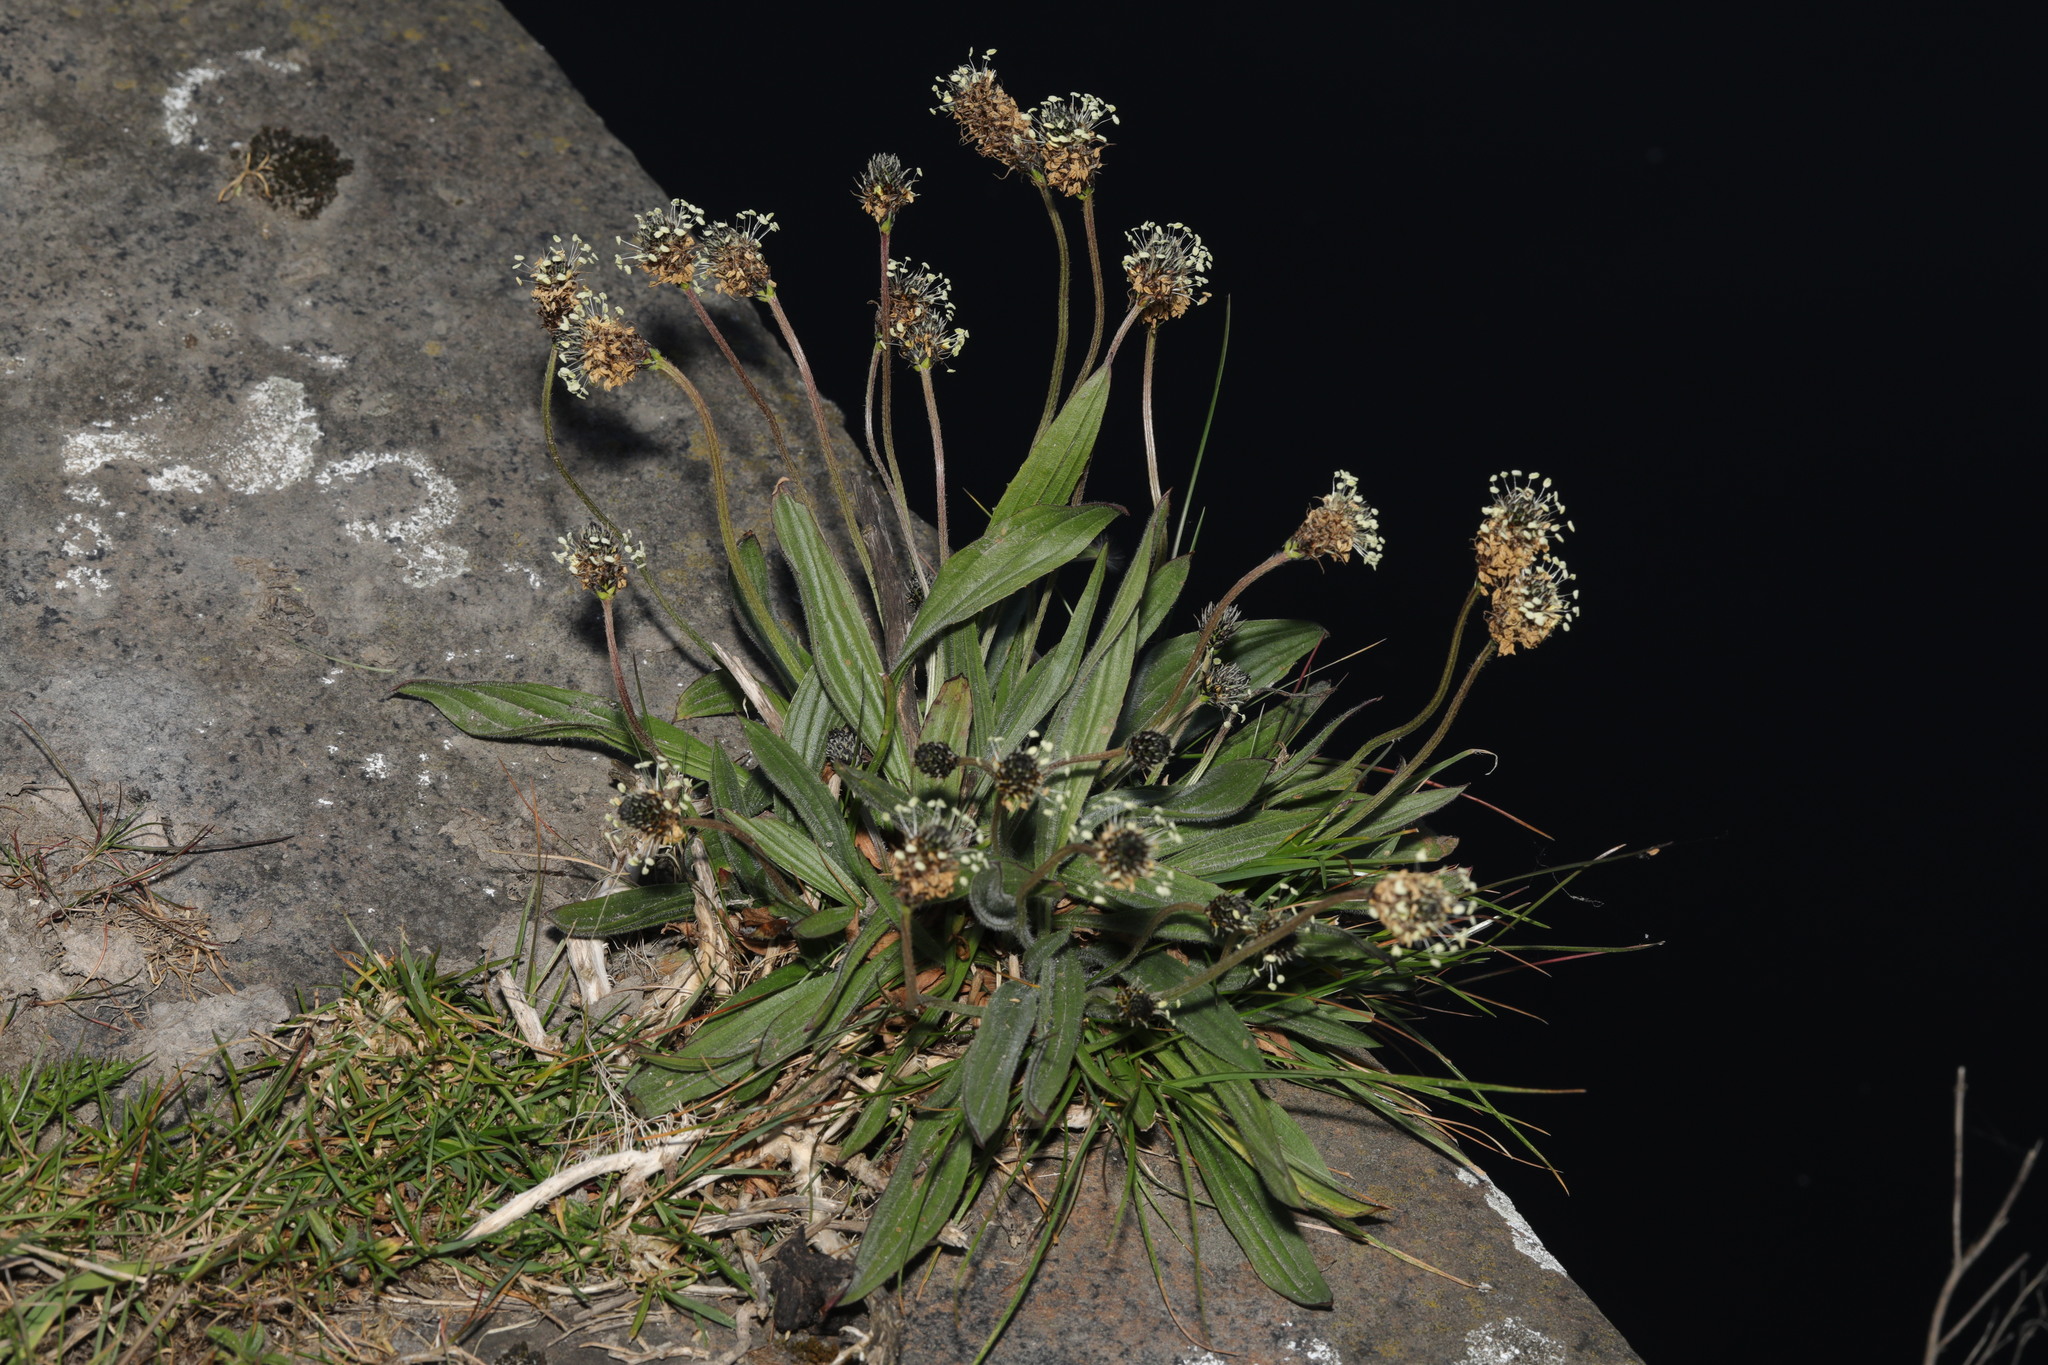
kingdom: Plantae
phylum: Tracheophyta
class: Magnoliopsida
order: Lamiales
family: Plantaginaceae
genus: Plantago
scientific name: Plantago lanceolata
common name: Ribwort plantain
